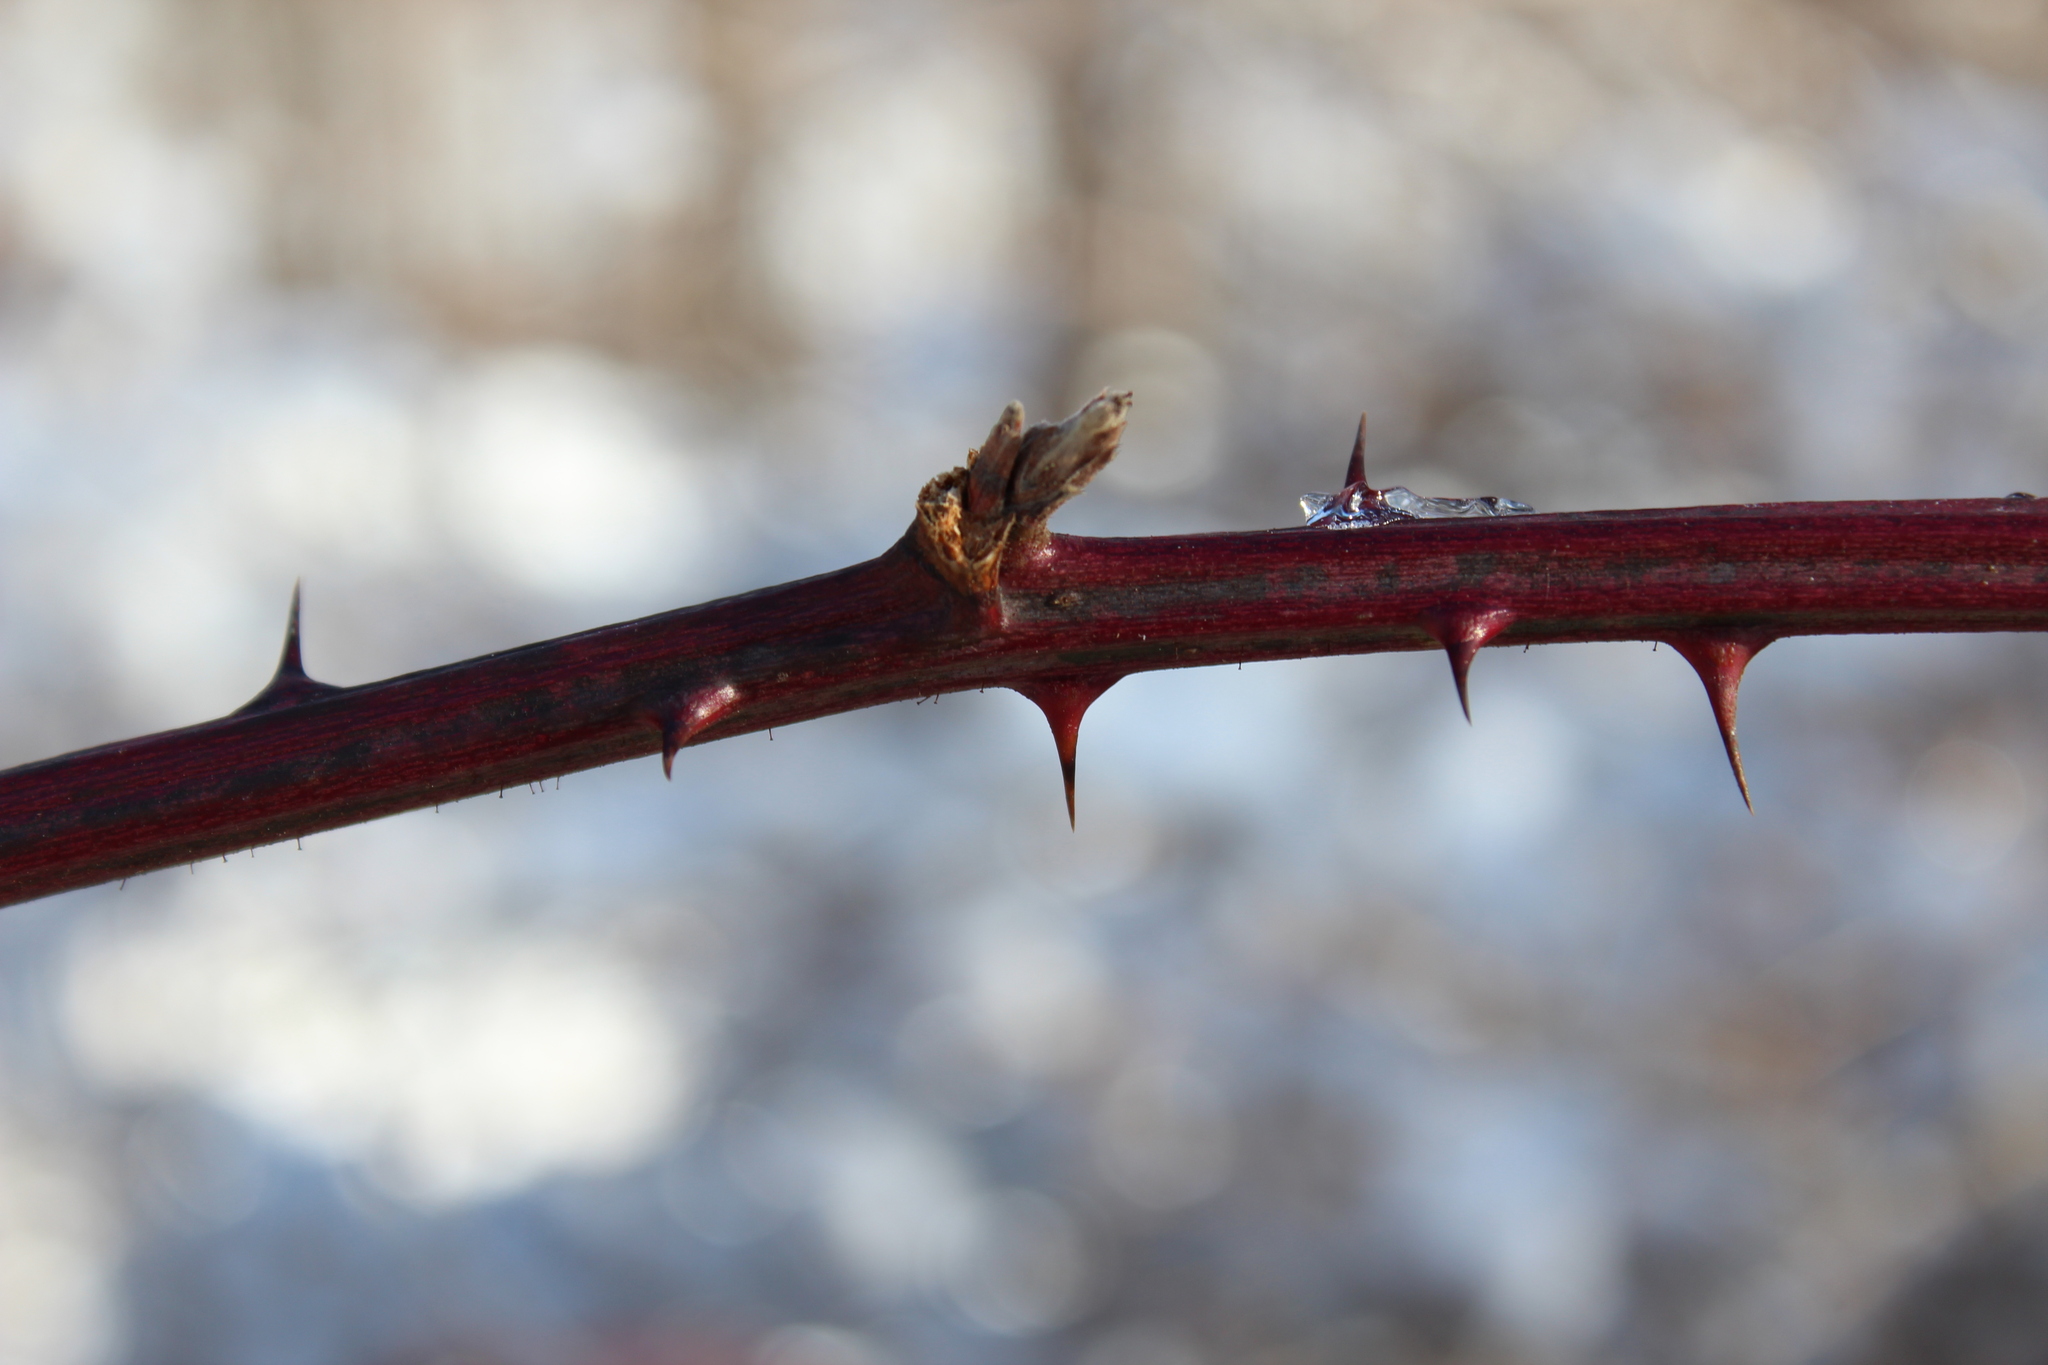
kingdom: Plantae
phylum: Tracheophyta
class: Magnoliopsida
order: Rosales
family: Rosaceae
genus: Rubus
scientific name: Rubus allegheniensis
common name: Allegheny blackberry
